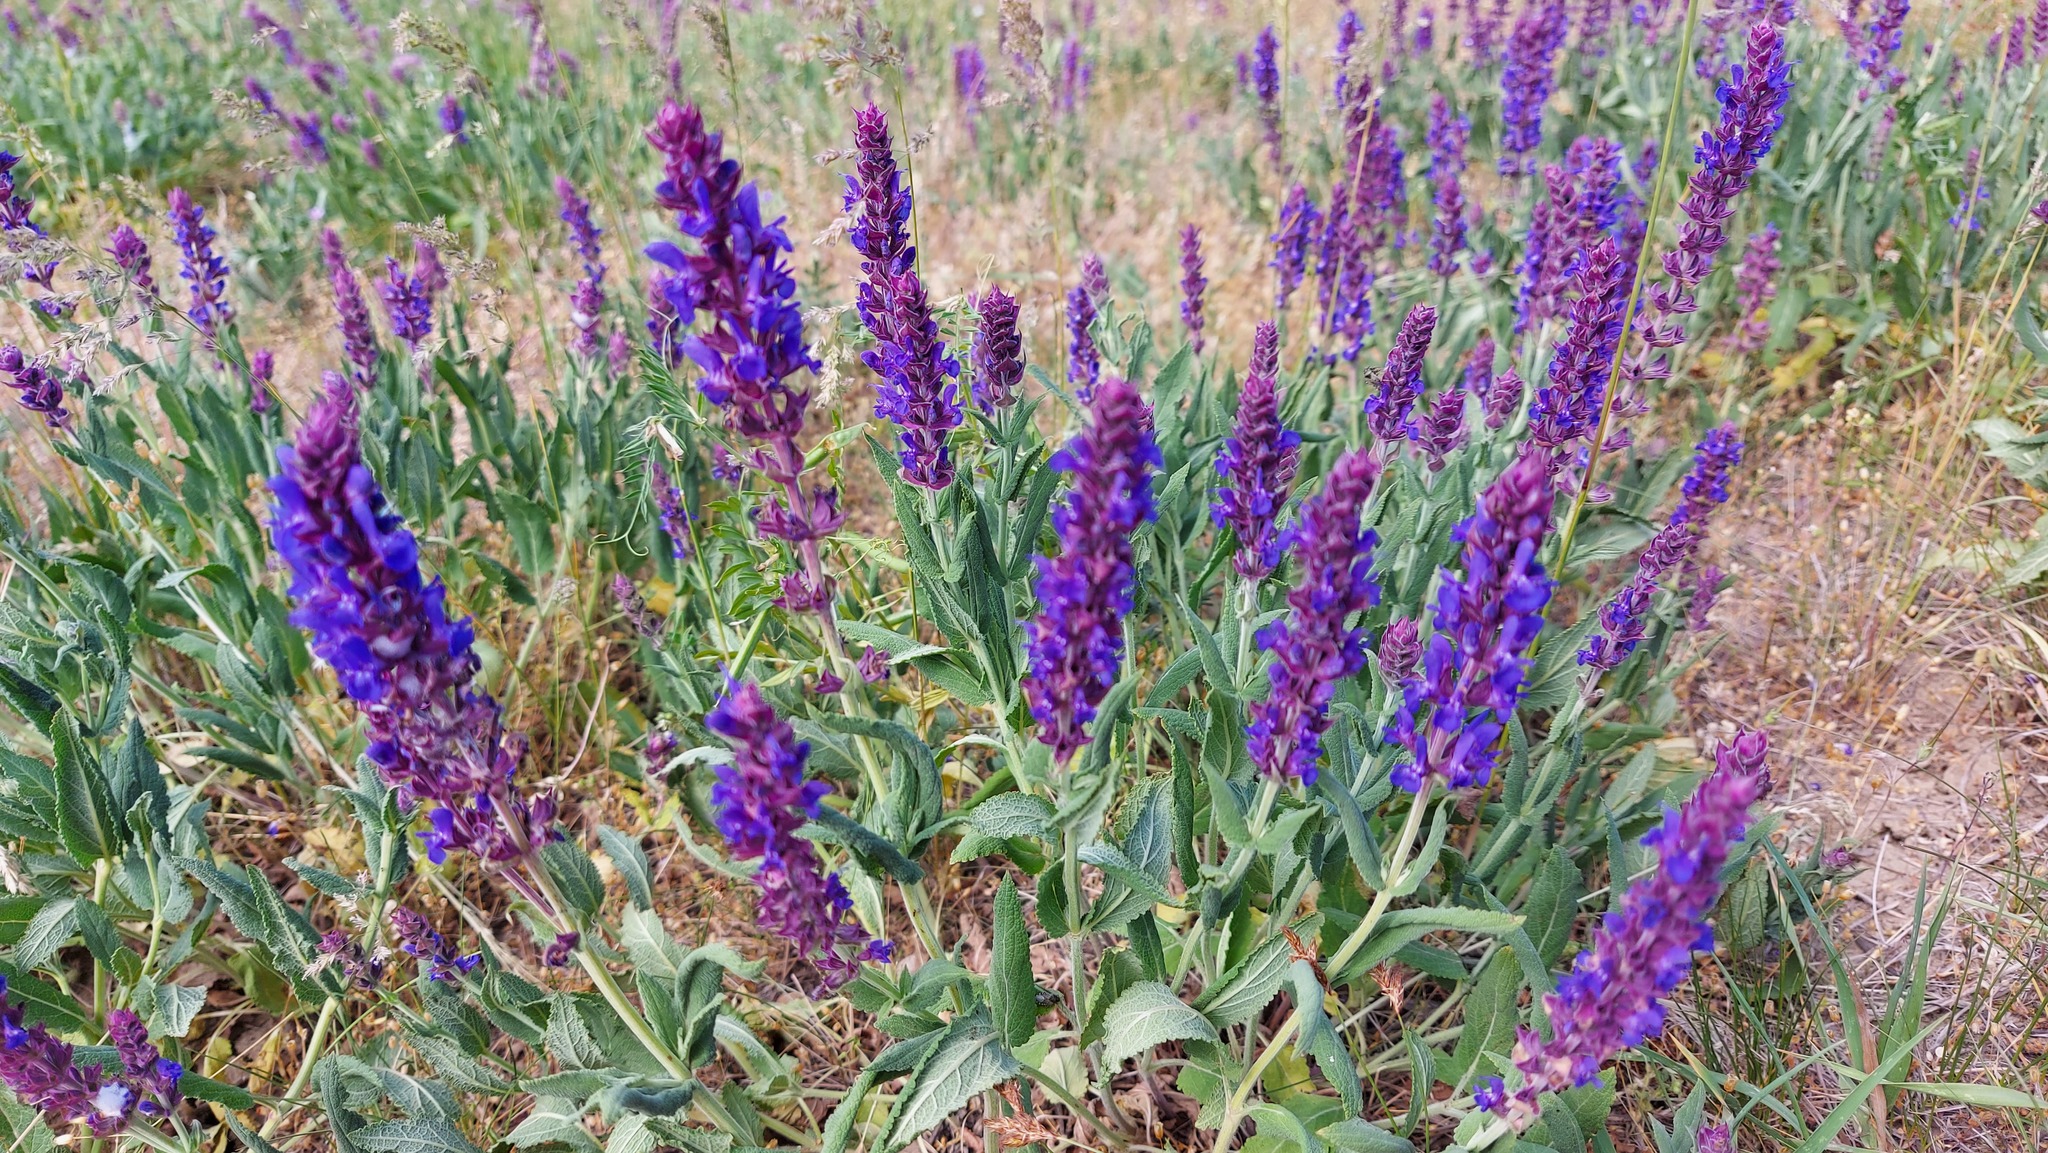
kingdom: Plantae
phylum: Tracheophyta
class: Magnoliopsida
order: Lamiales
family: Lamiaceae
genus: Salvia
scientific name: Salvia nemorosa
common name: Balkan clary
